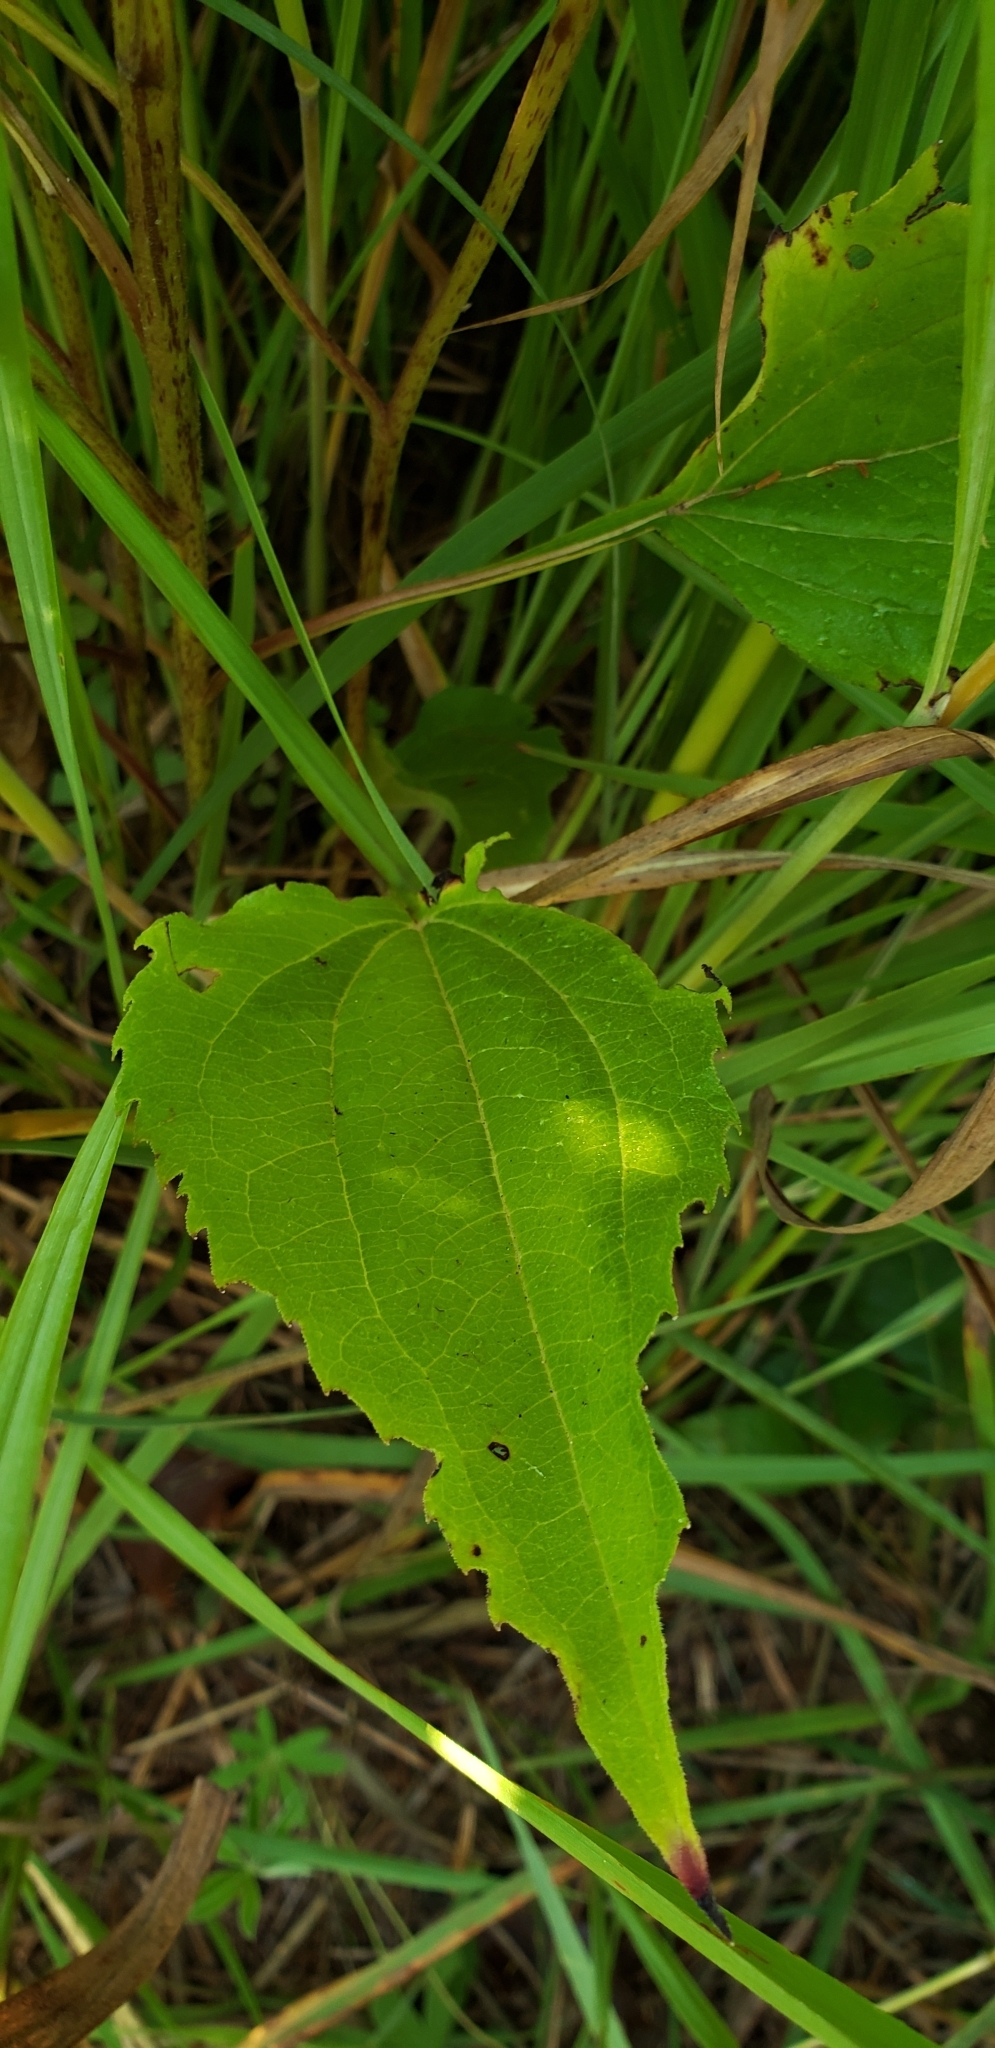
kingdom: Plantae
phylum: Tracheophyta
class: Magnoliopsida
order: Asterales
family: Asteraceae
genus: Echinacea
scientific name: Echinacea purpurea
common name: Broad-leaved purple coneflower
